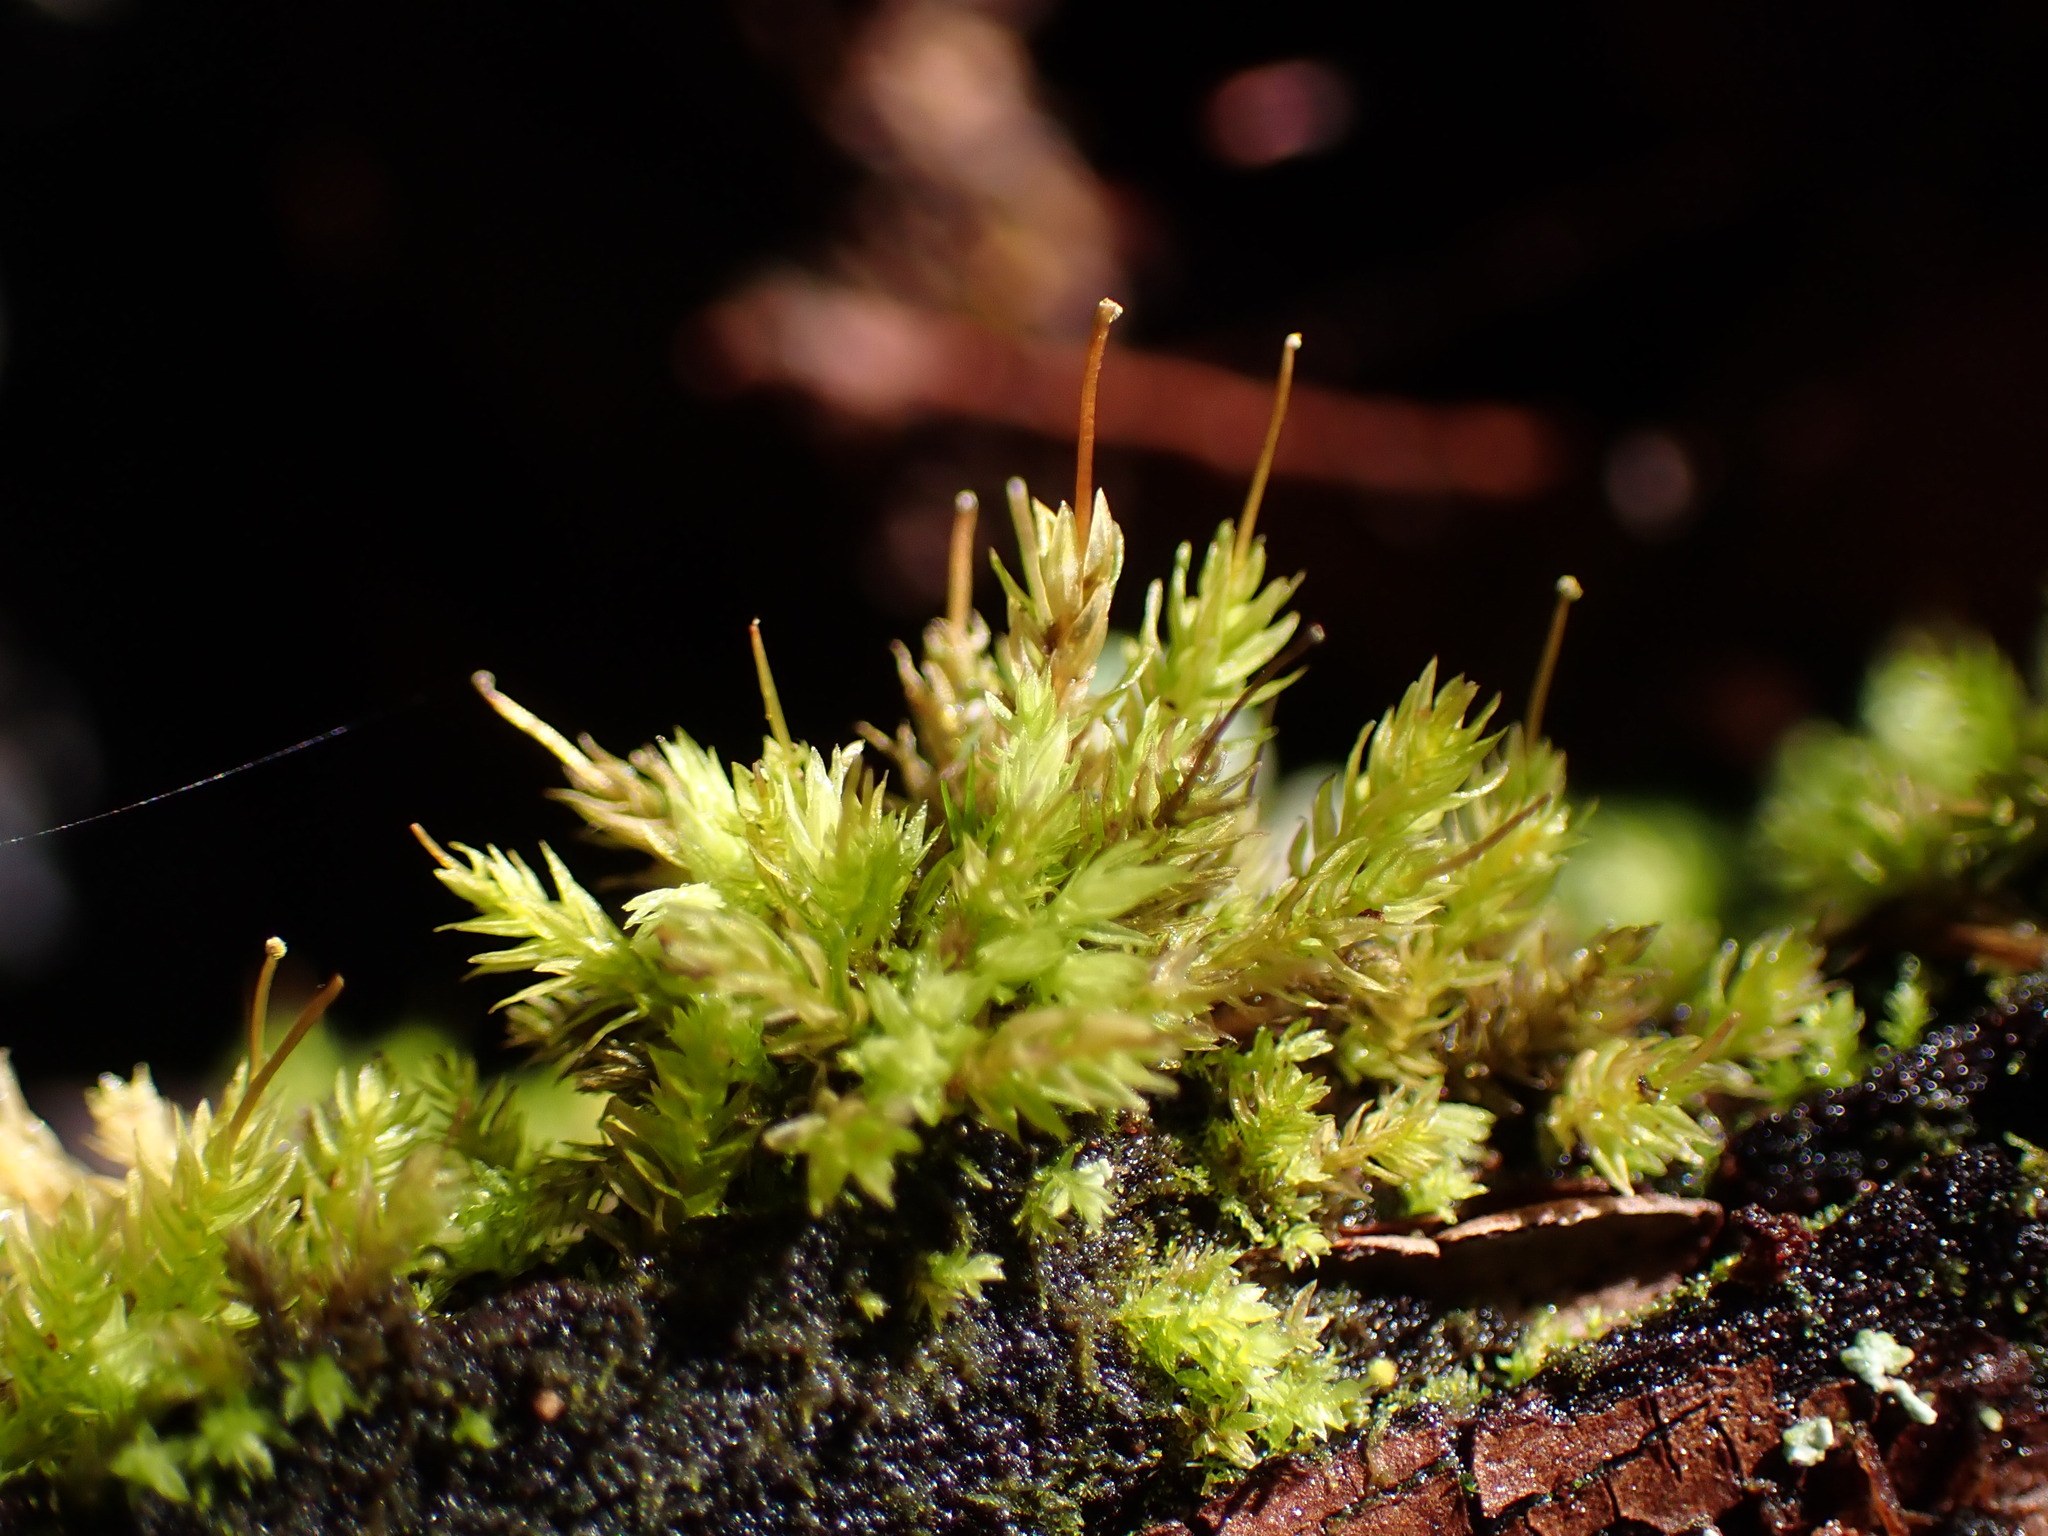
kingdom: Plantae
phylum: Bryophyta
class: Bryopsida
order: Aulacomniales
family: Aulacomniaceae
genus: Aulacomnium
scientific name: Aulacomnium androgynum
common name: Little groove moss
